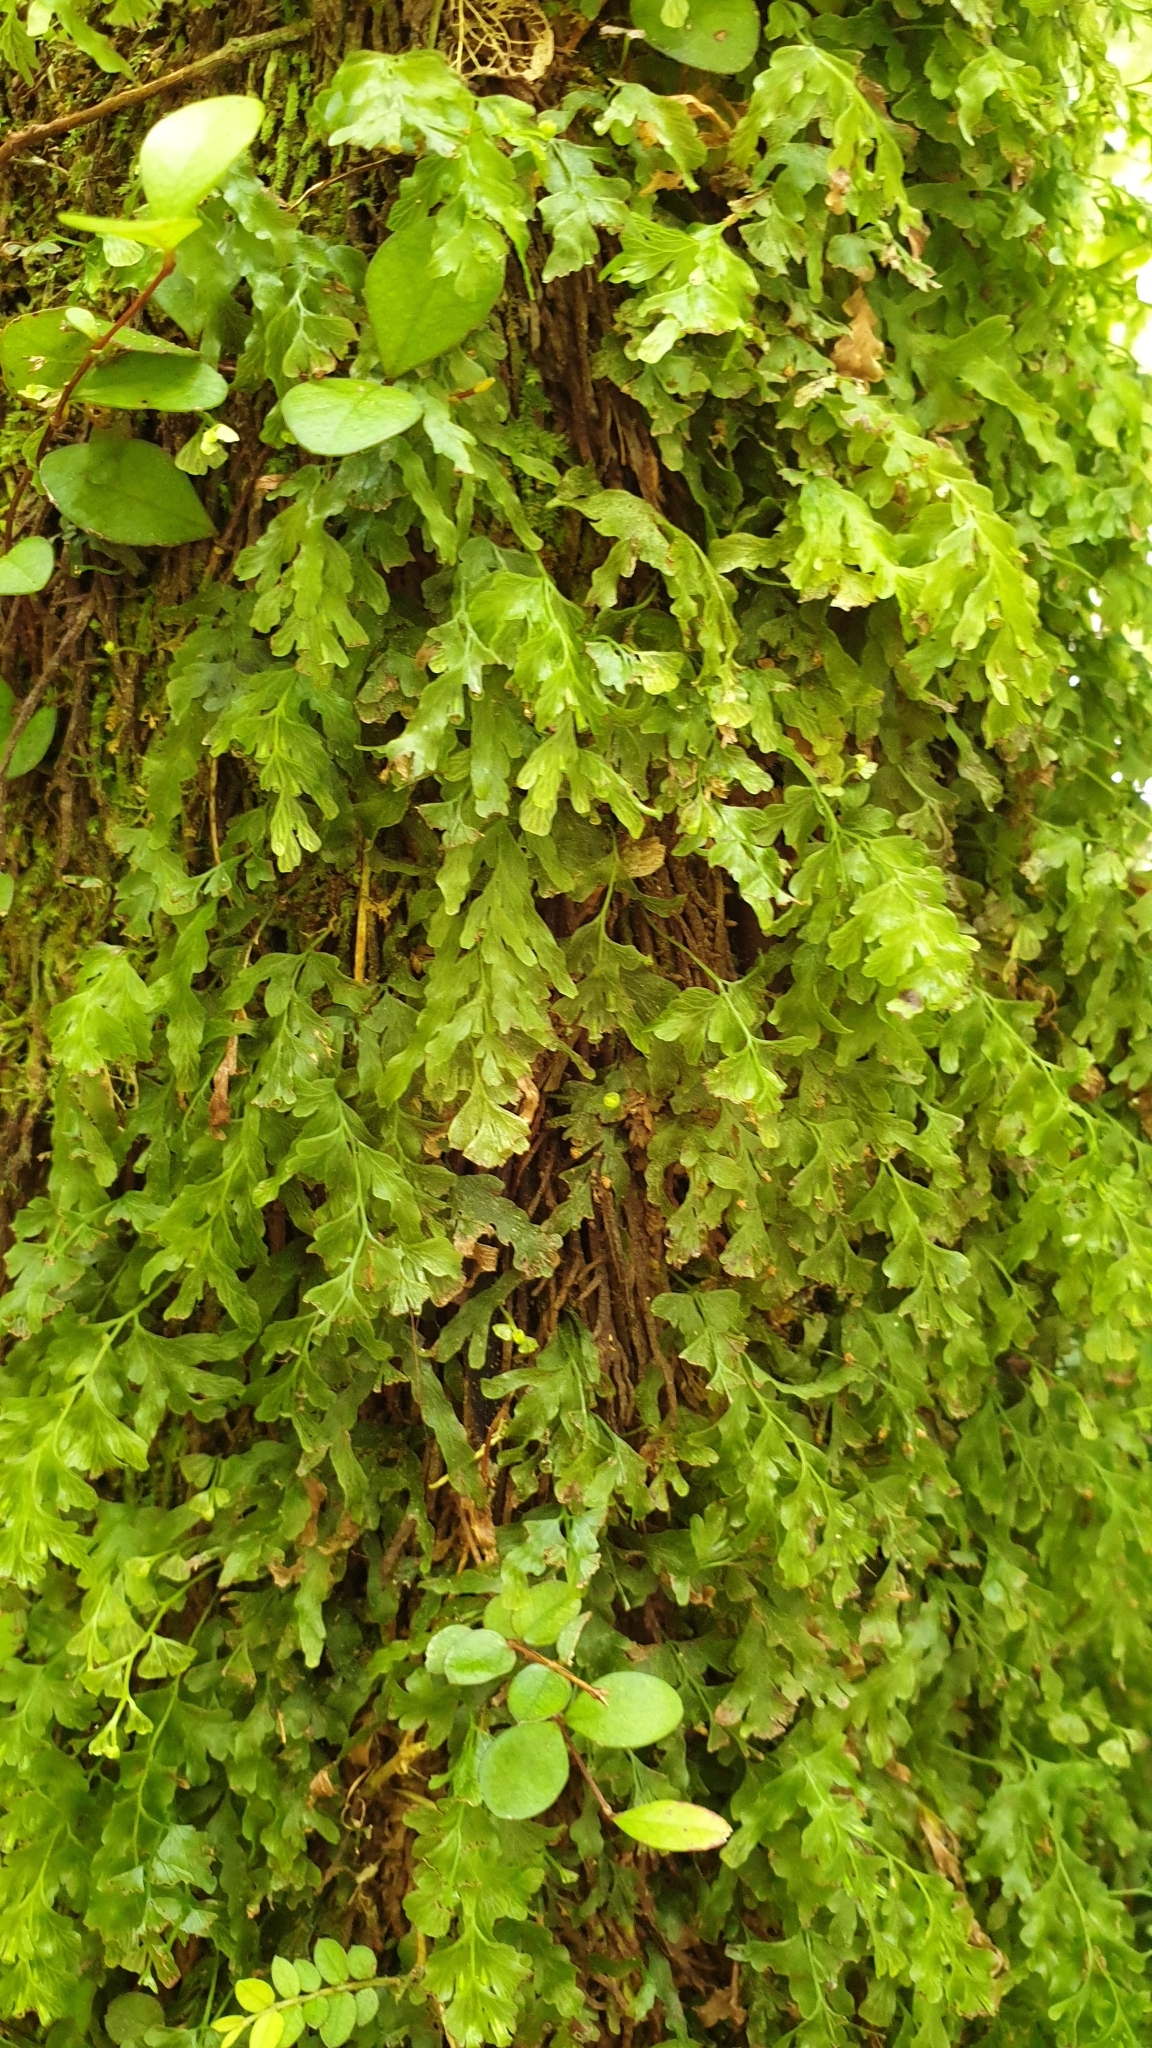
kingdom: Plantae
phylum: Tracheophyta
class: Polypodiopsida
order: Hymenophyllales
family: Hymenophyllaceae
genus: Hymenophyllum
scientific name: Hymenophyllum flabellatum
